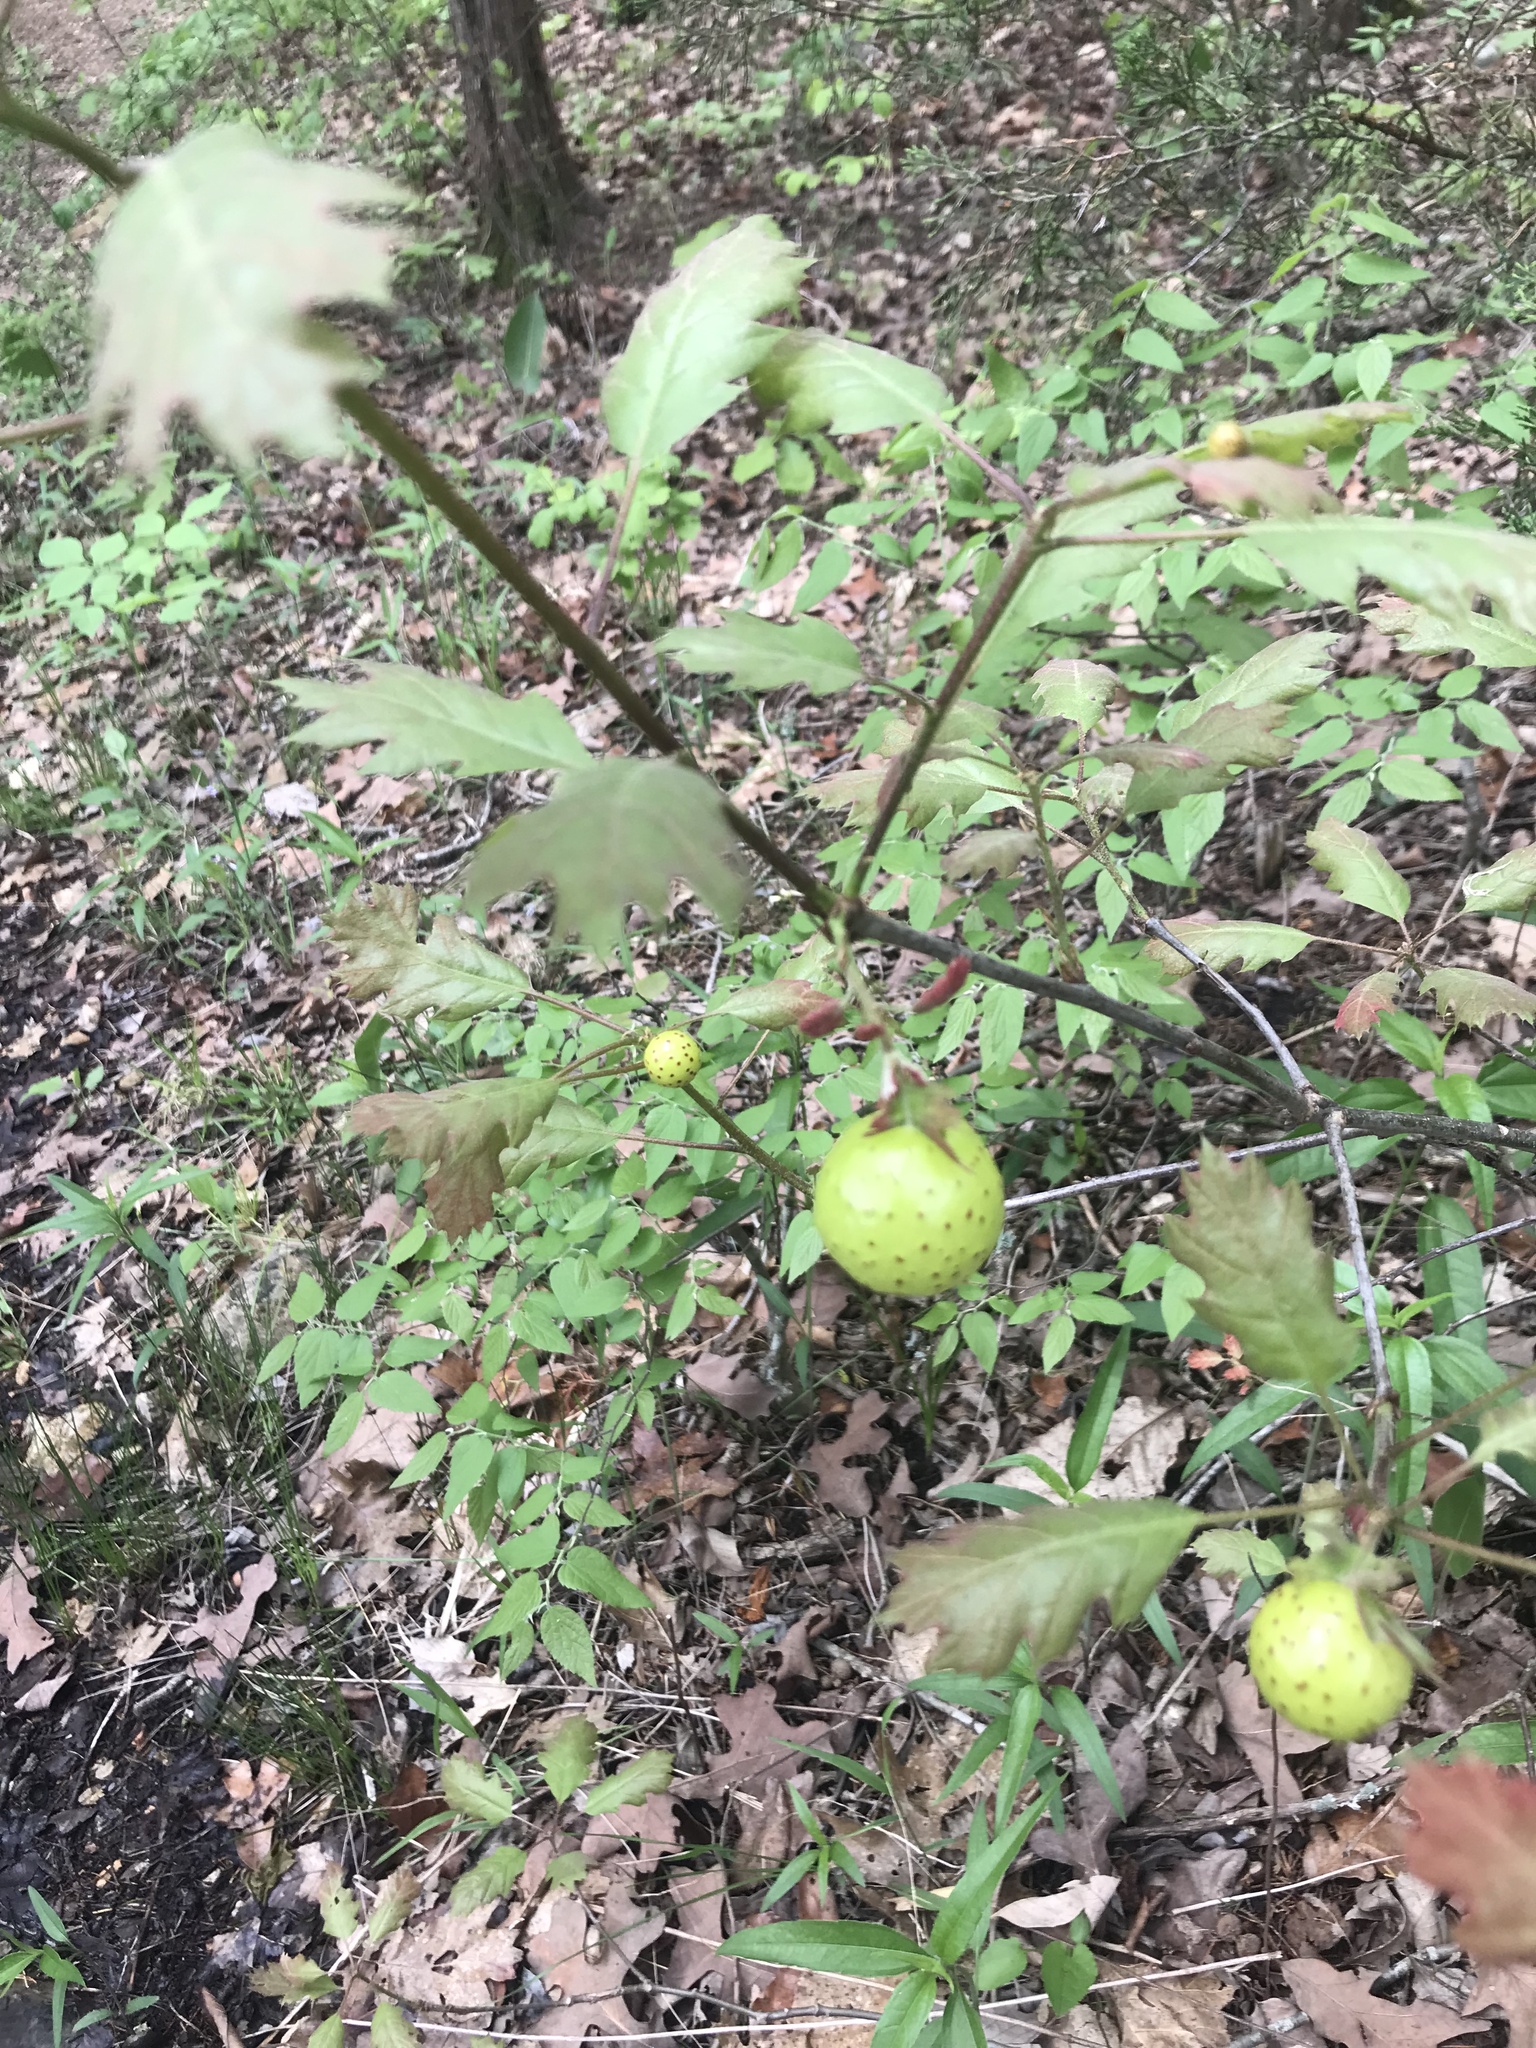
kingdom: Animalia
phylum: Arthropoda
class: Insecta
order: Hymenoptera
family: Cynipidae
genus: Amphibolips
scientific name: Amphibolips
